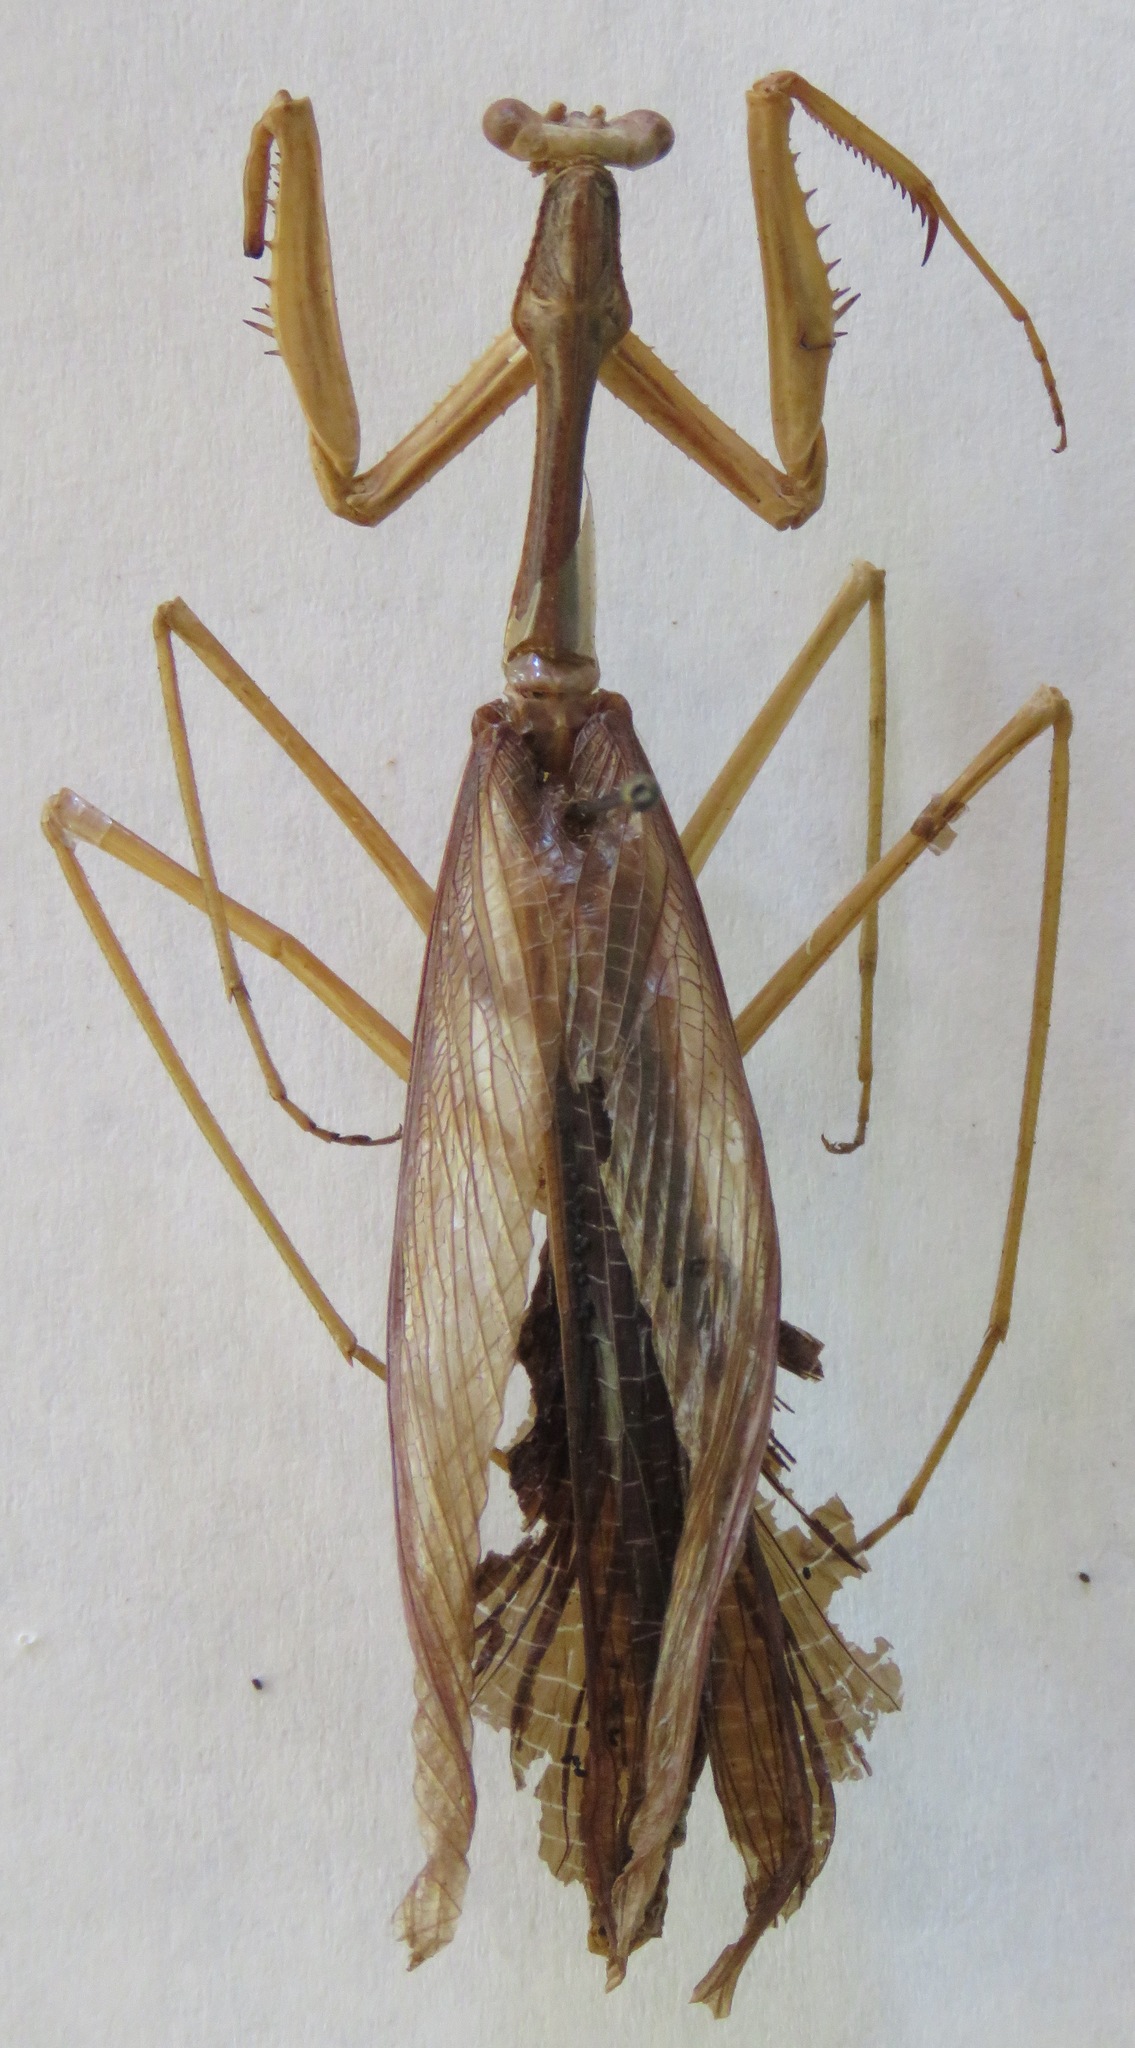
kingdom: Animalia
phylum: Arthropoda
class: Insecta
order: Mantodea
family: Coptopterygidae
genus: Coptopteryx
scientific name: Coptopteryx thoracica
